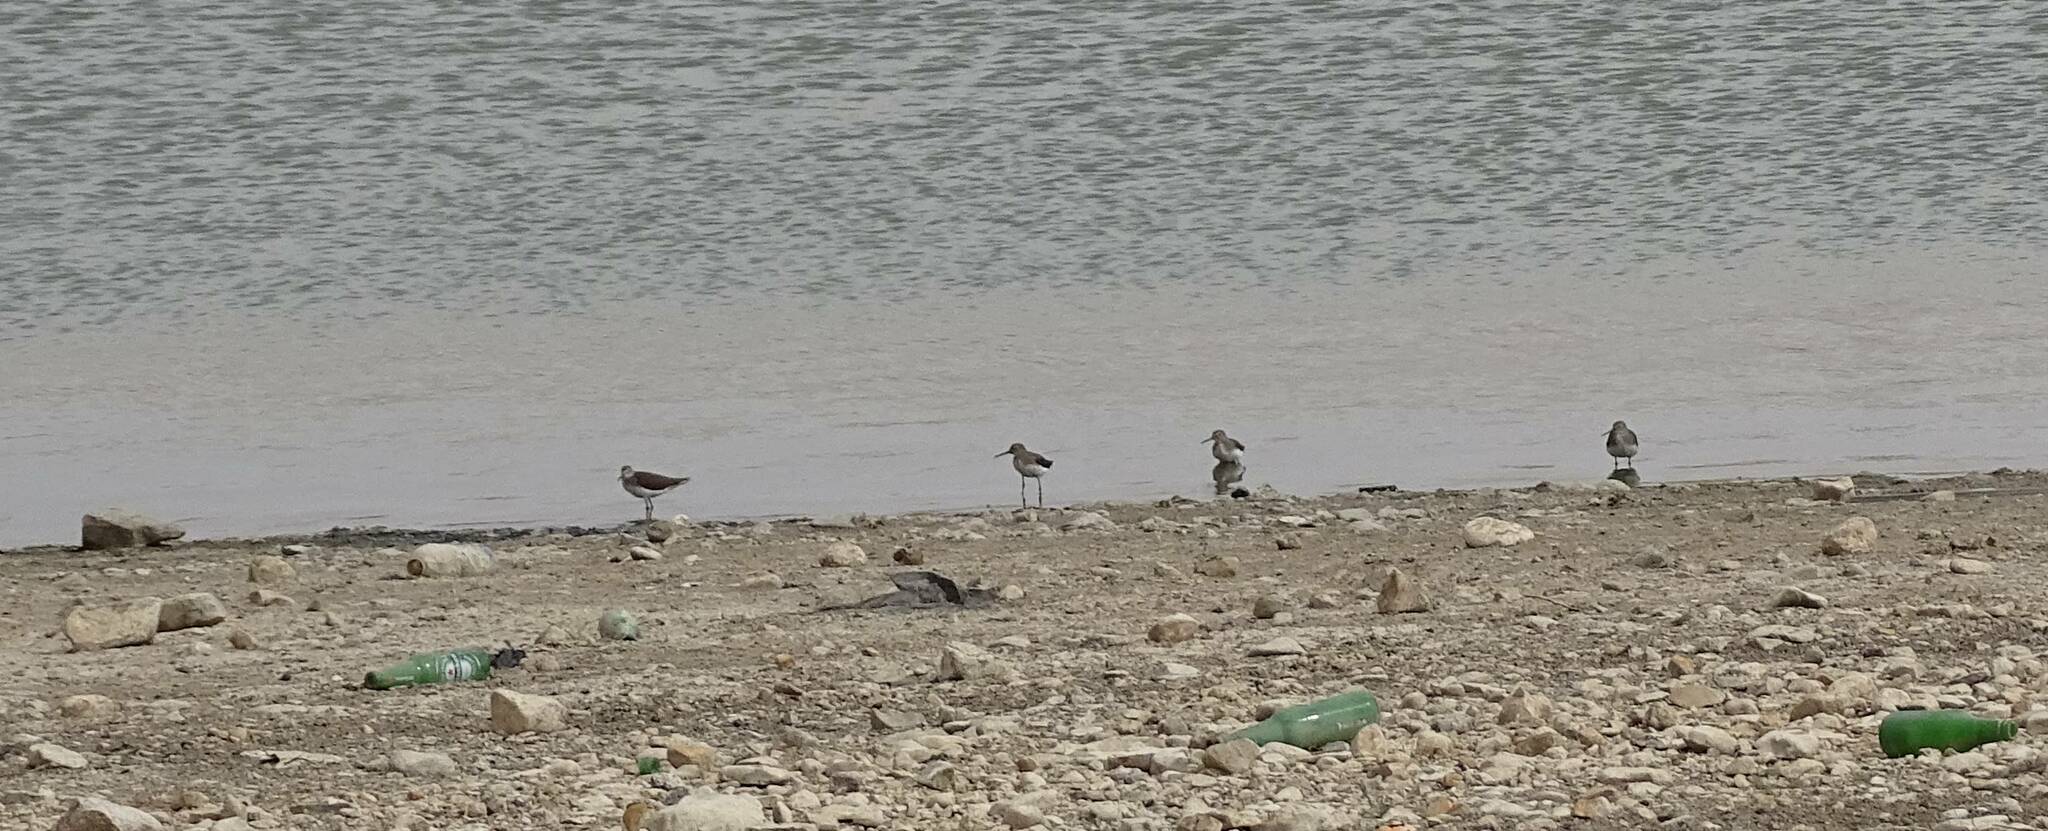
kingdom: Animalia
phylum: Chordata
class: Aves
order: Charadriiformes
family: Scolopacidae
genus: Tringa
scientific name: Tringa ochropus
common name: Green sandpiper
